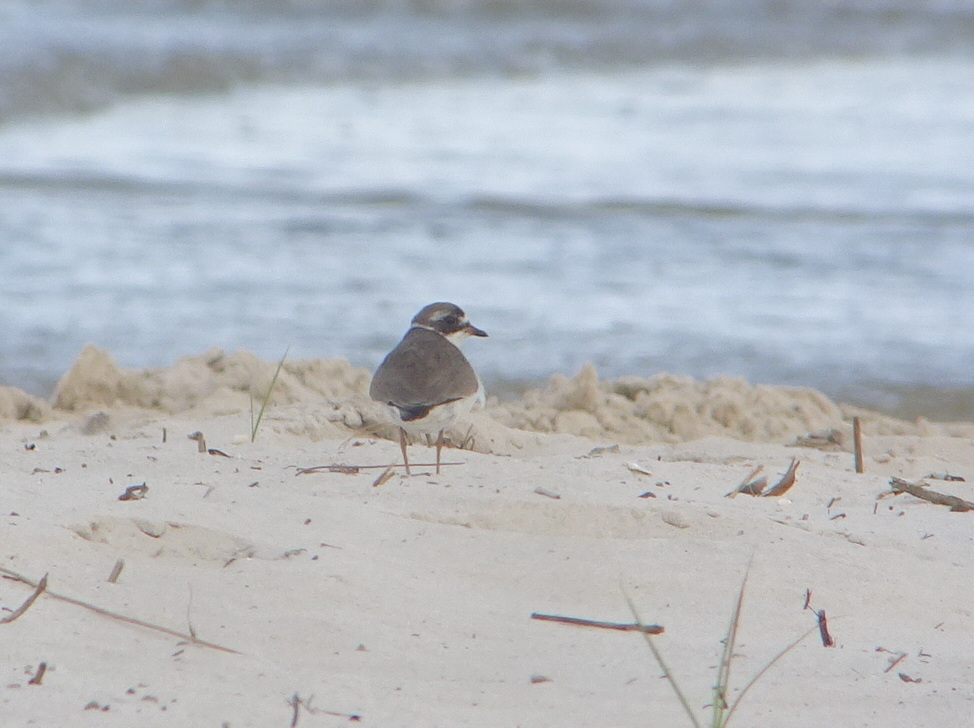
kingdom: Animalia
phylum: Chordata
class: Aves
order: Charadriiformes
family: Charadriidae
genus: Charadrius
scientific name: Charadrius semipalmatus
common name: Semipalmated plover
